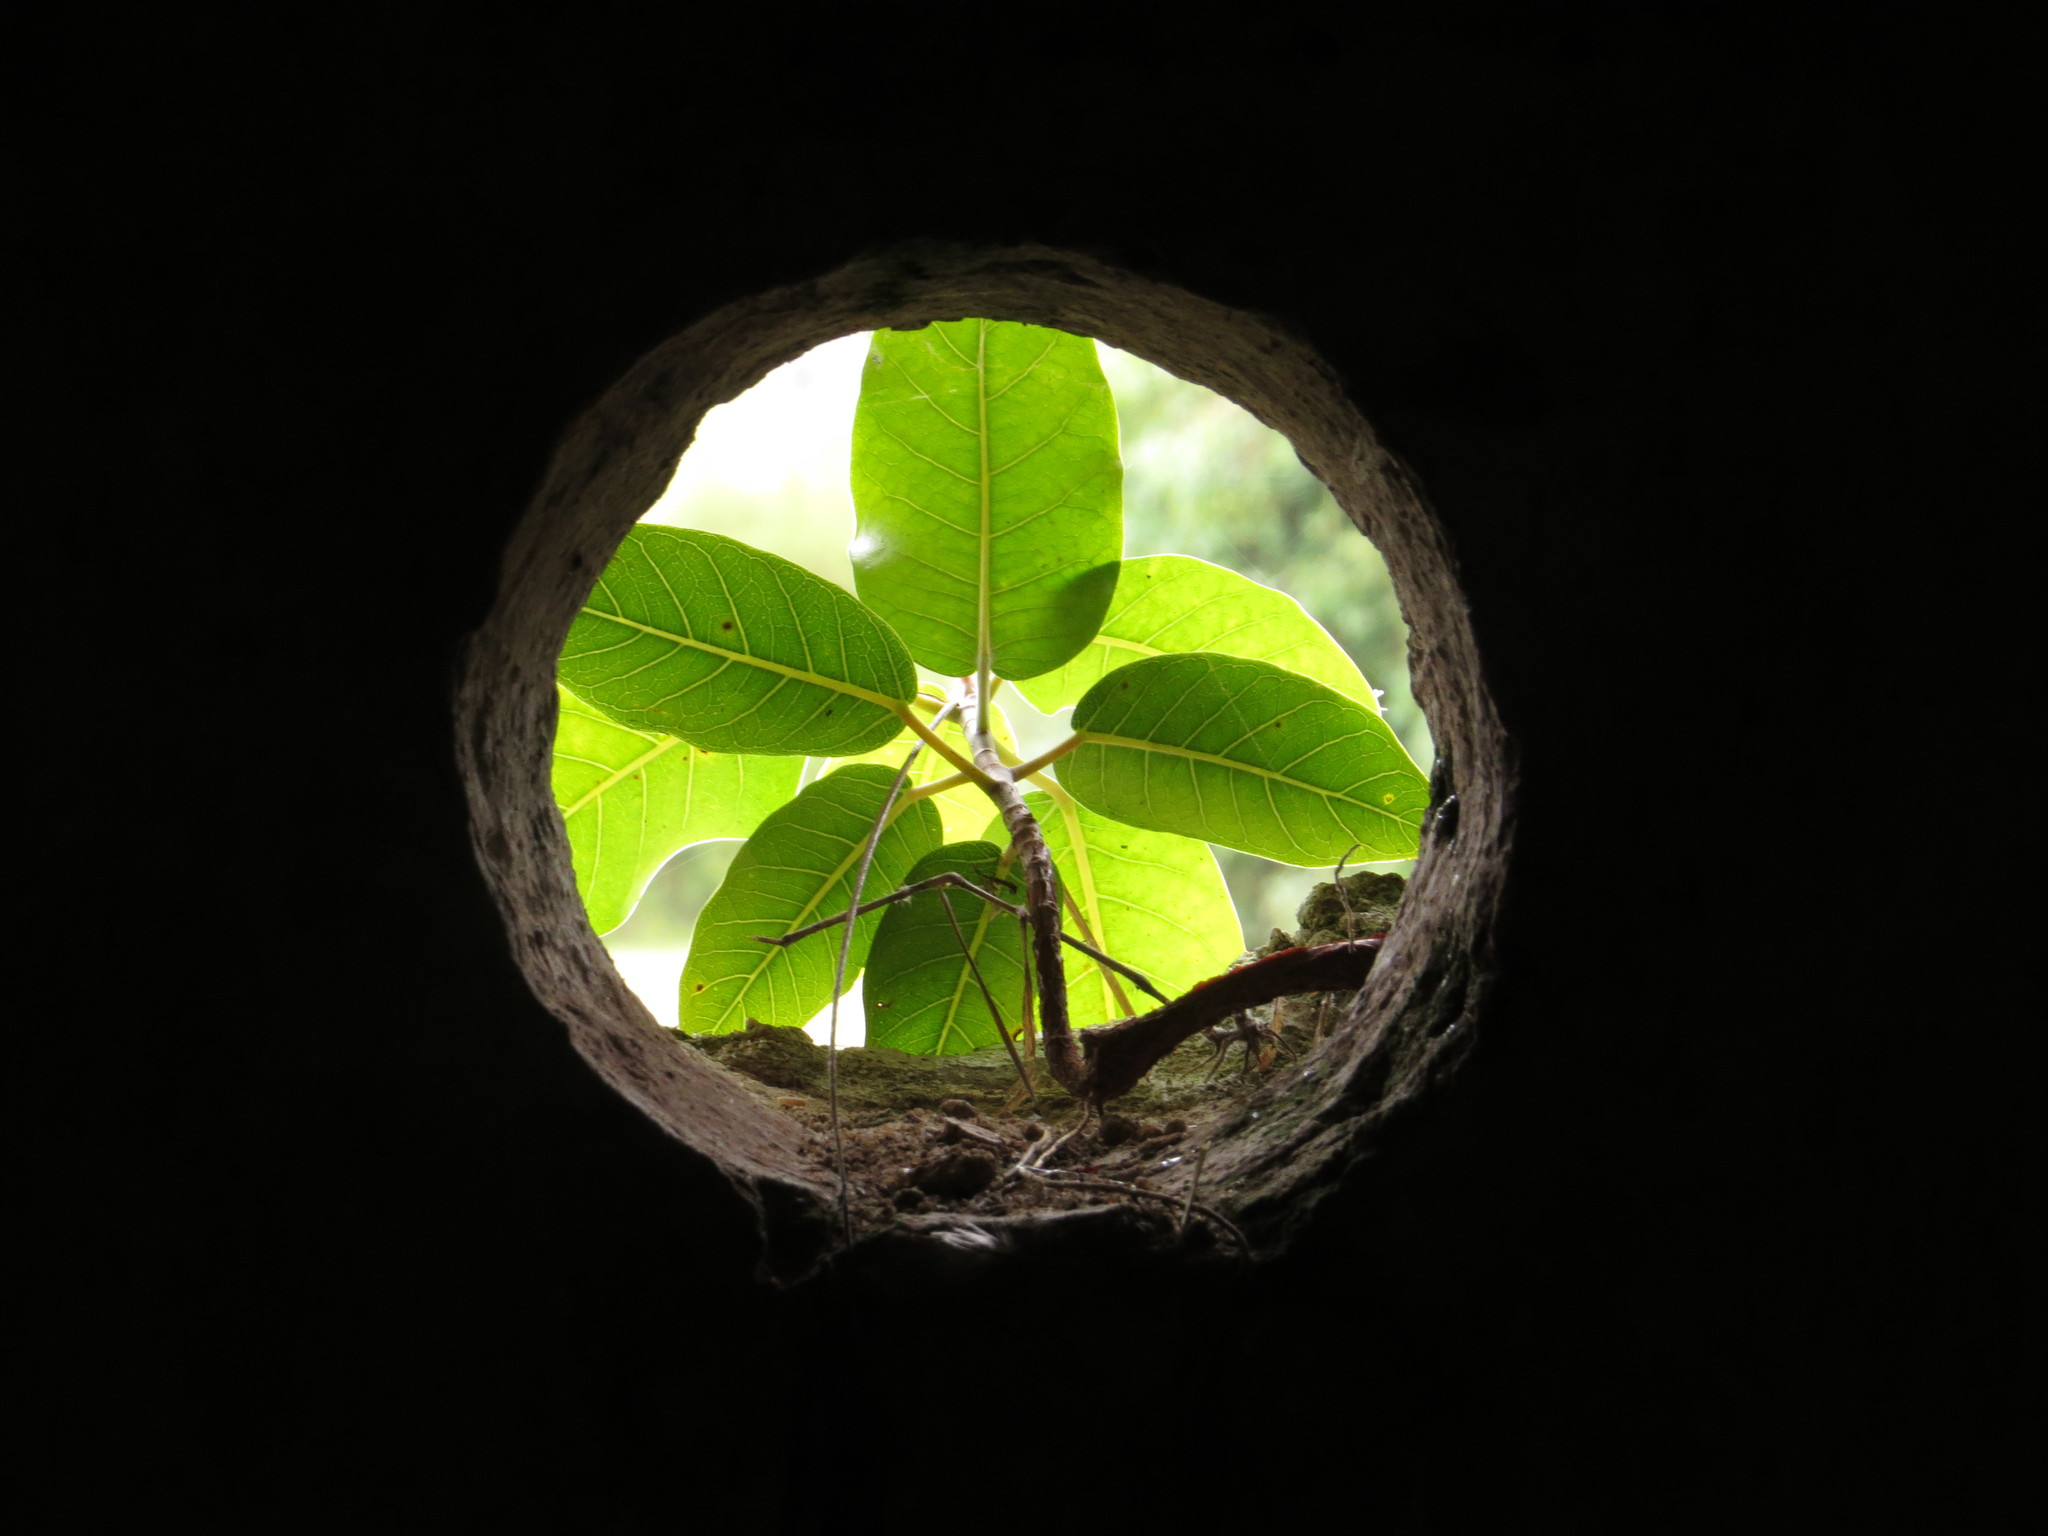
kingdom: Plantae
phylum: Tracheophyta
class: Magnoliopsida
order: Rosales
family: Moraceae
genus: Ficus
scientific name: Ficus luschnathiana
